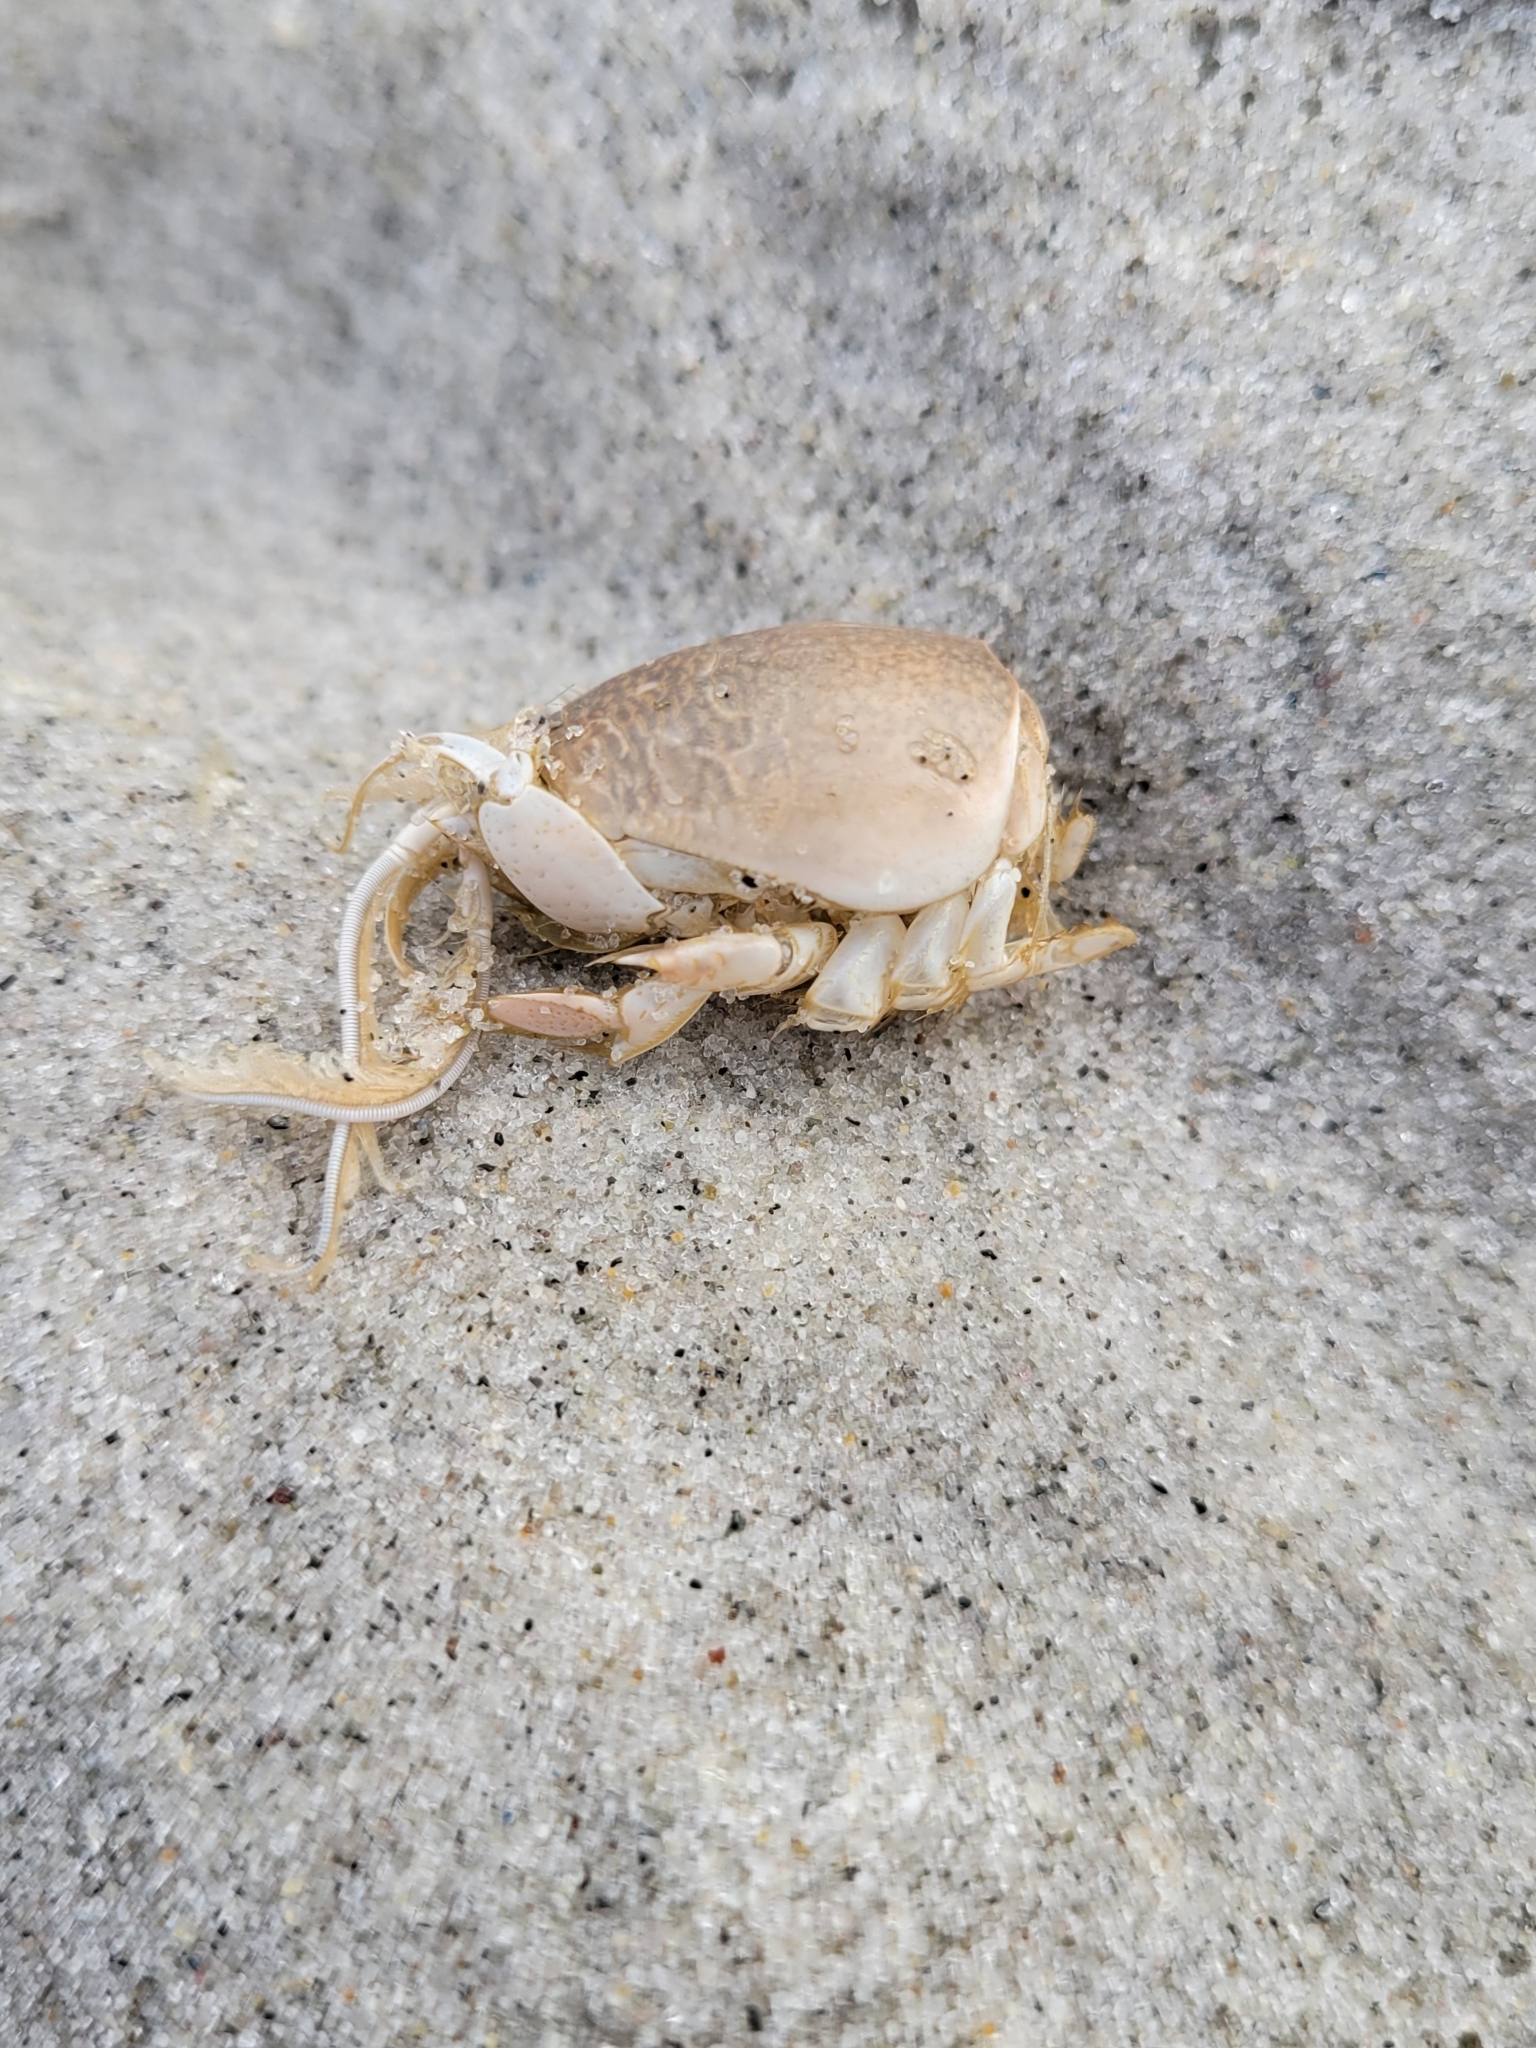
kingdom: Animalia
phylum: Arthropoda
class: Malacostraca
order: Decapoda
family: Hippidae
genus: Emerita
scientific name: Emerita analoga
